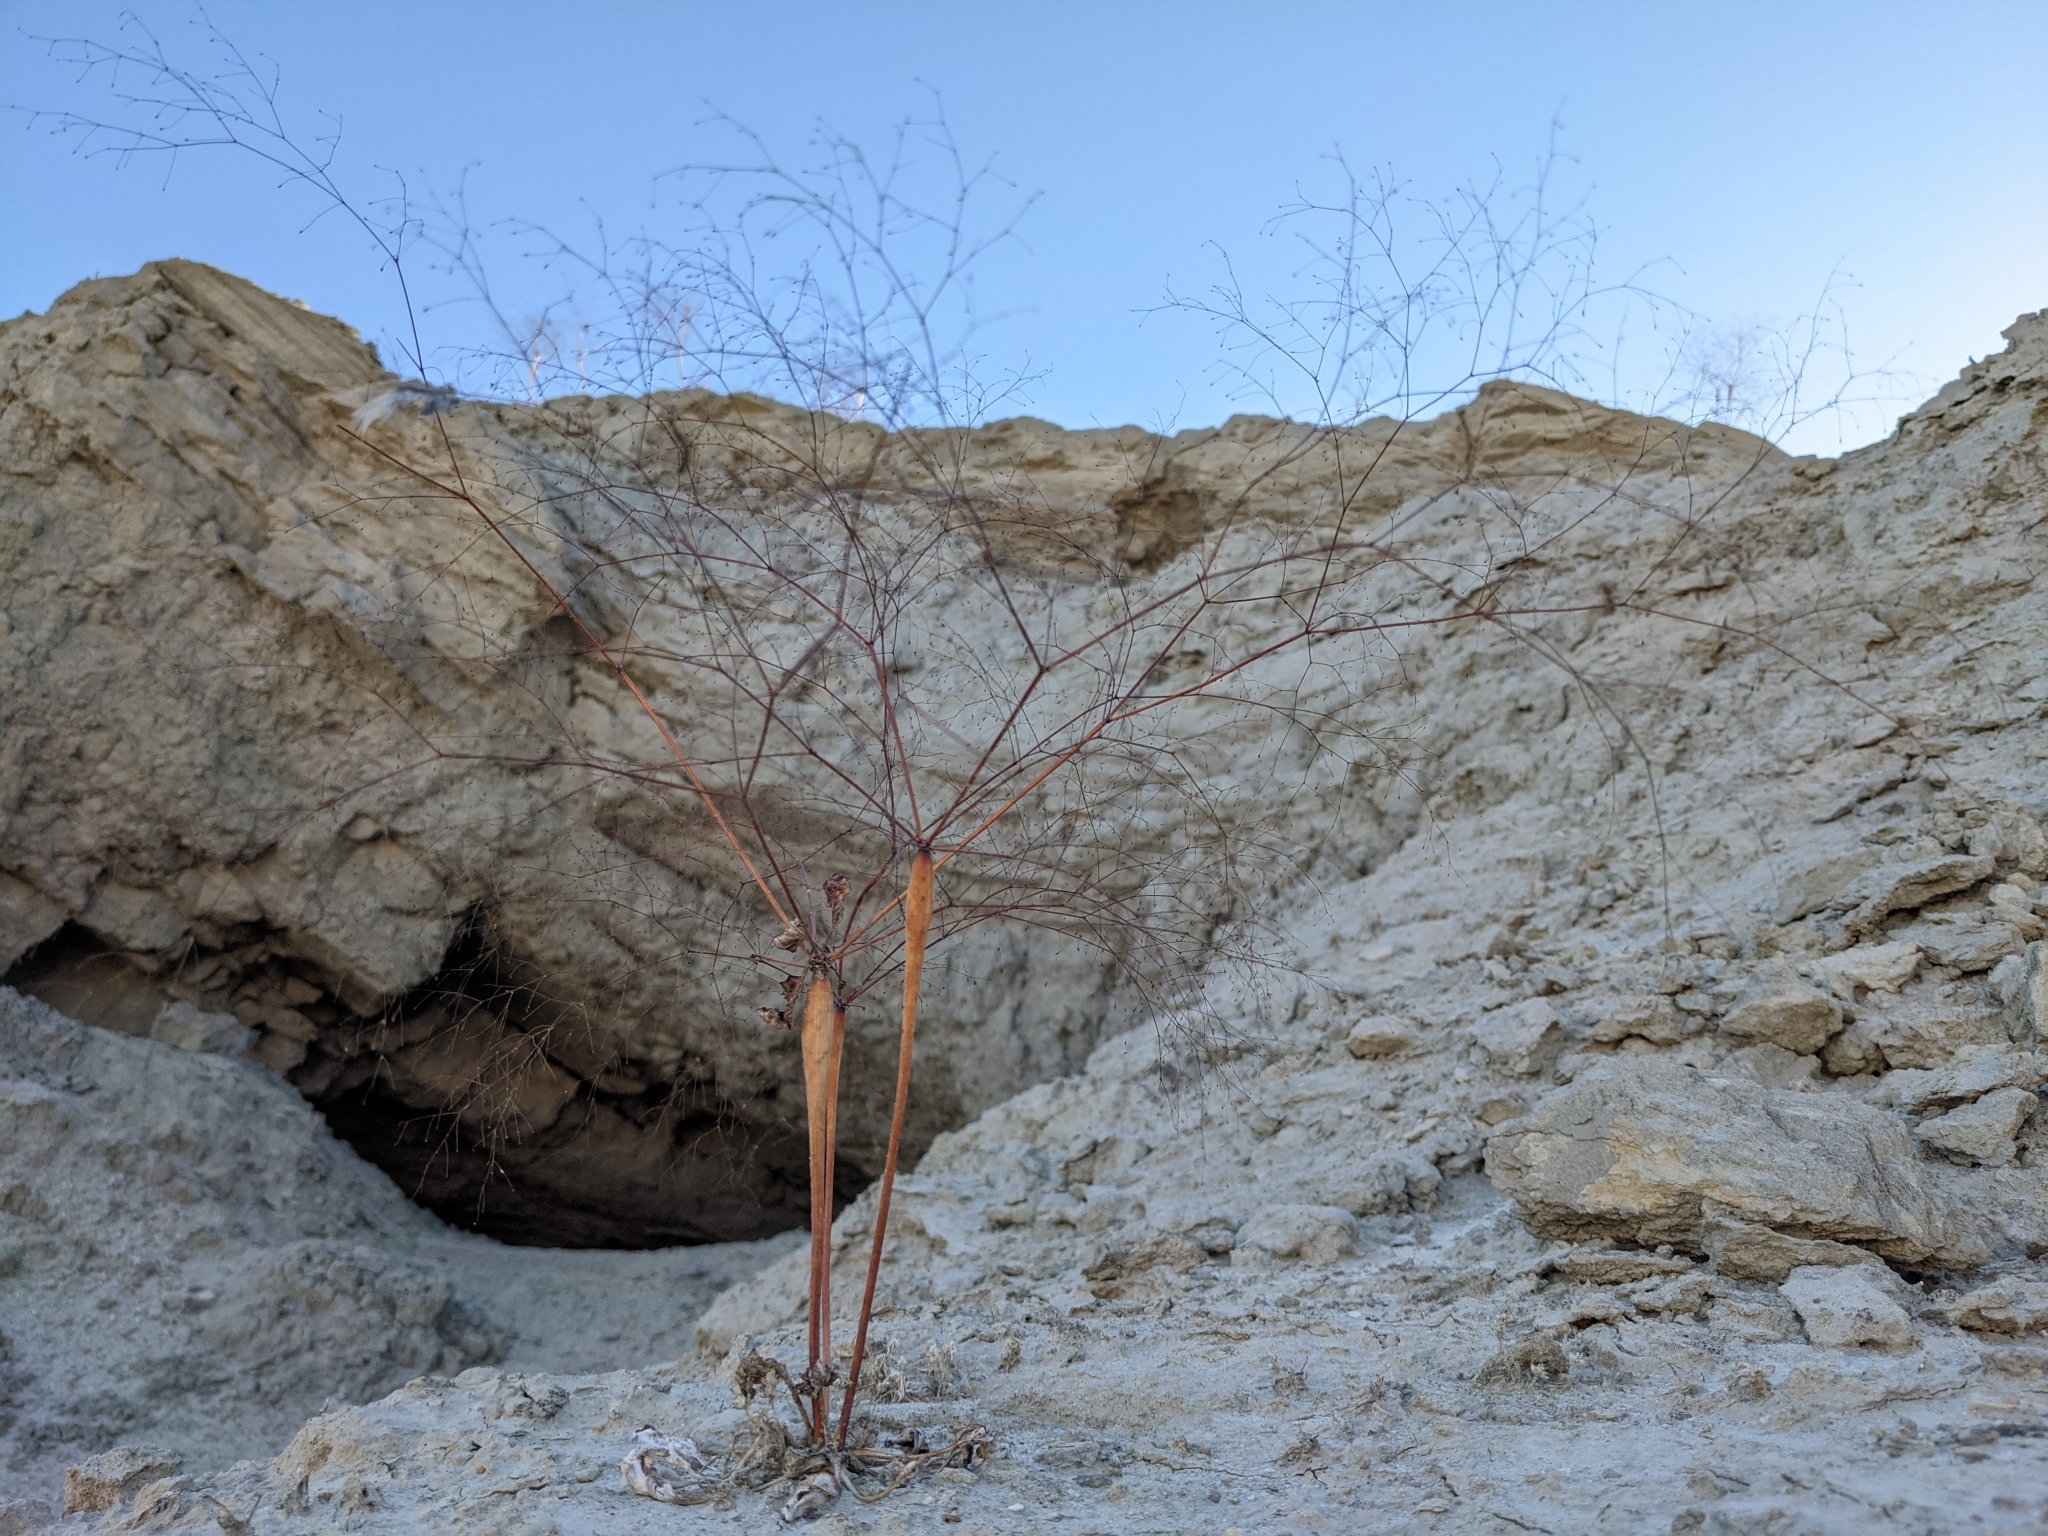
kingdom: Plantae
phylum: Tracheophyta
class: Magnoliopsida
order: Caryophyllales
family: Polygonaceae
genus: Eriogonum
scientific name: Eriogonum trichopes
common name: Little desert trumpet
